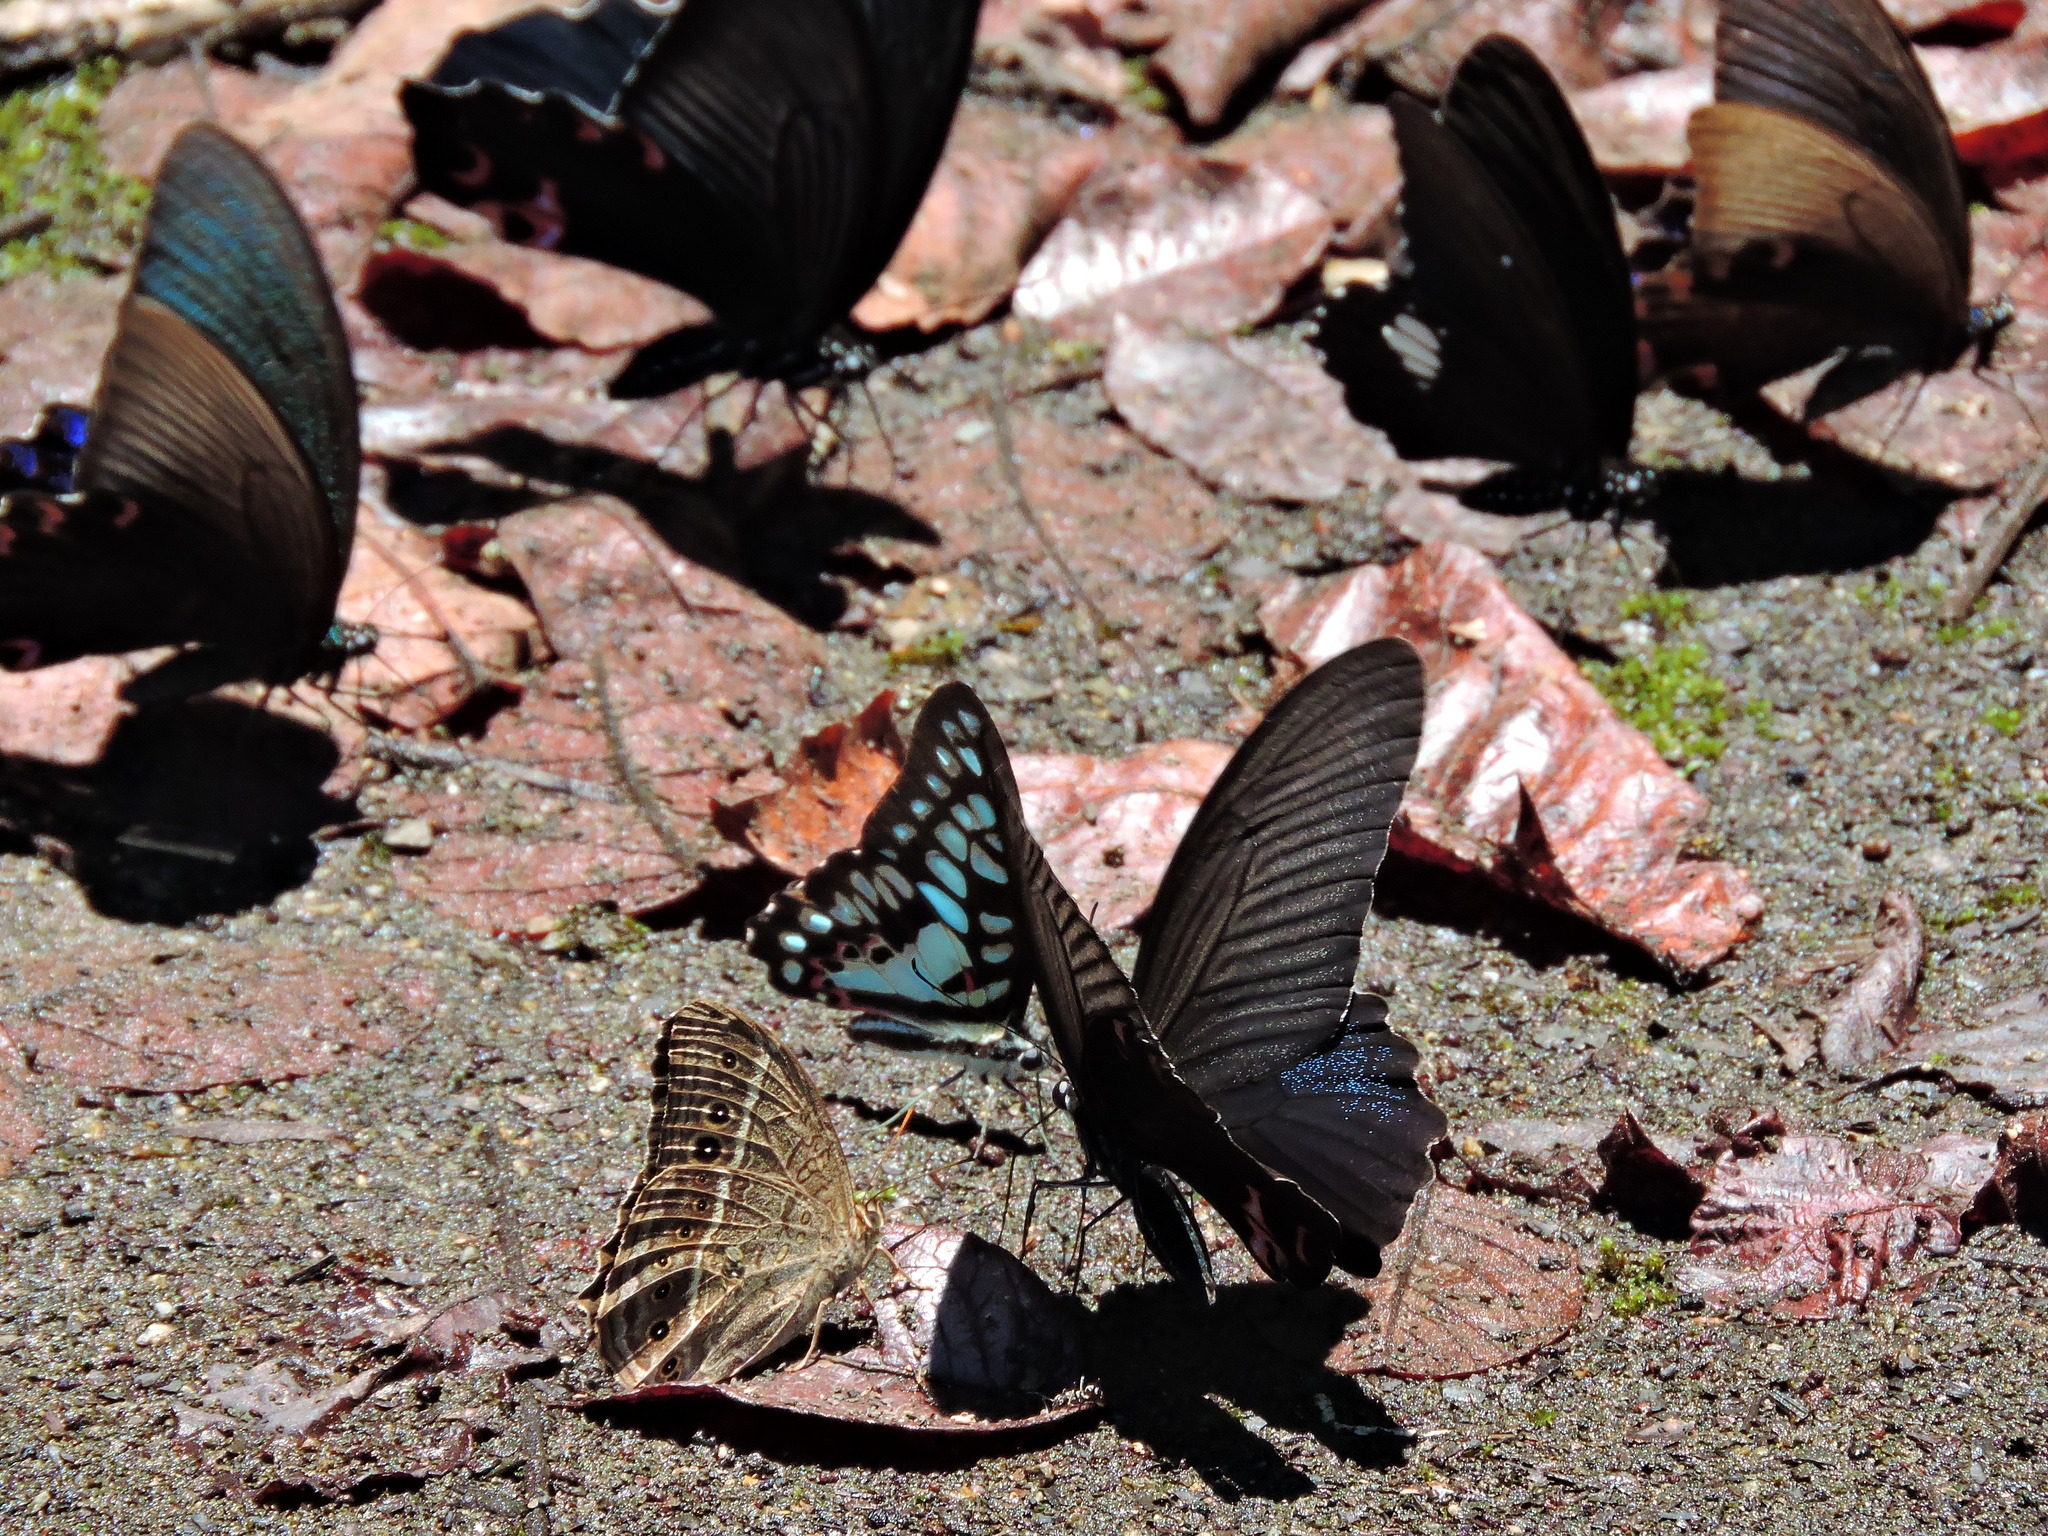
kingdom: Animalia
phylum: Arthropoda
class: Insecta
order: Lepidoptera
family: Nymphalidae
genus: Neope
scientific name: Neope muirheadii
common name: Black-spotted labyrinth
